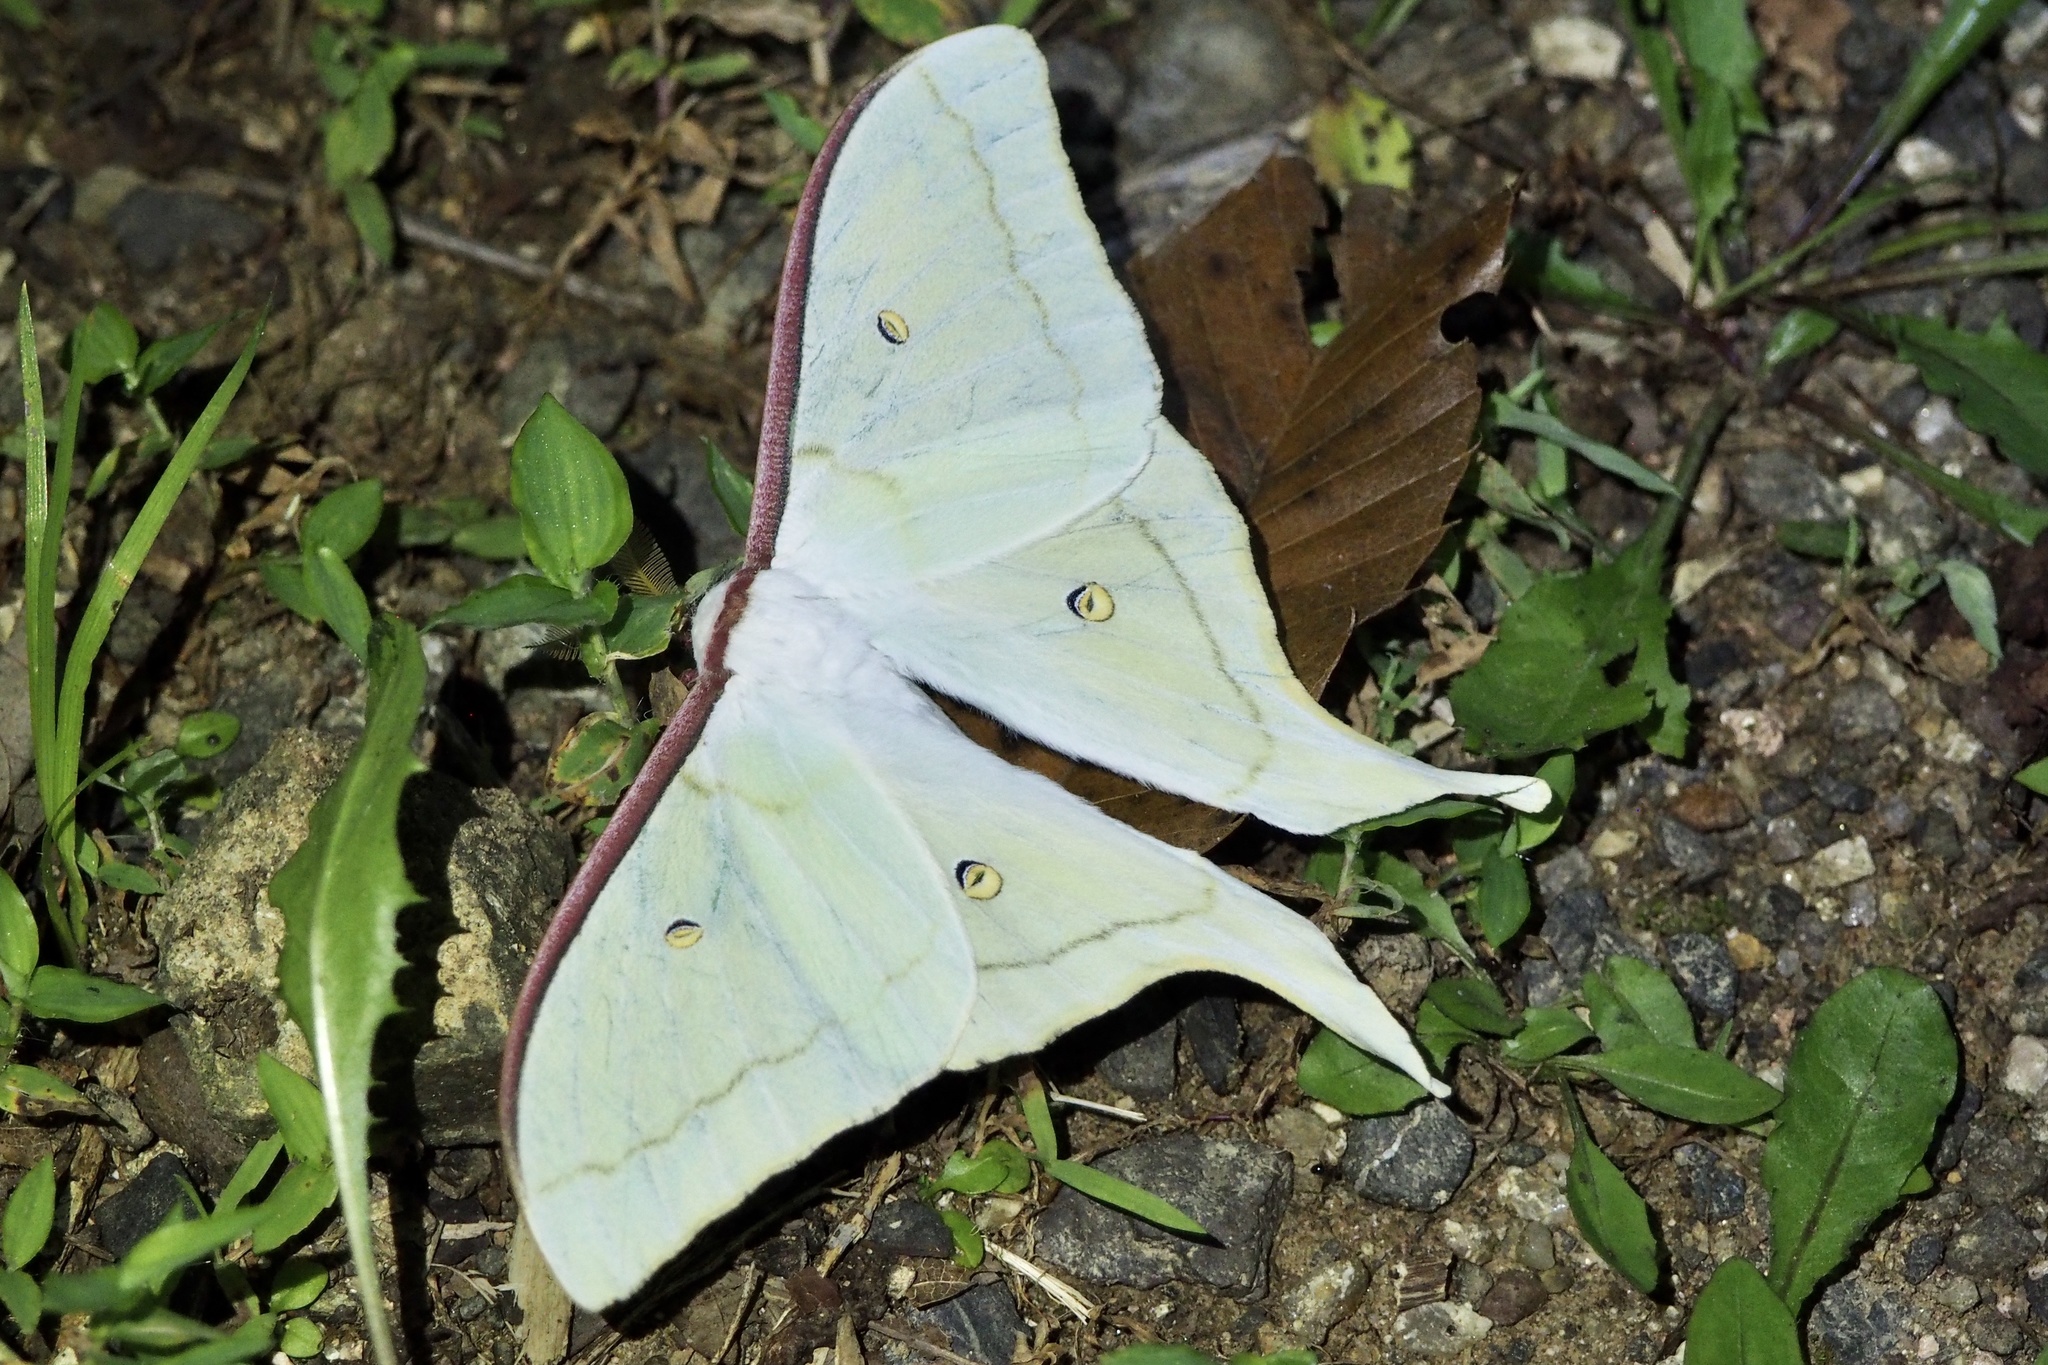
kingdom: Animalia
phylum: Arthropoda
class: Insecta
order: Lepidoptera
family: Saturniidae
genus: Actias
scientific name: Actias aliena
